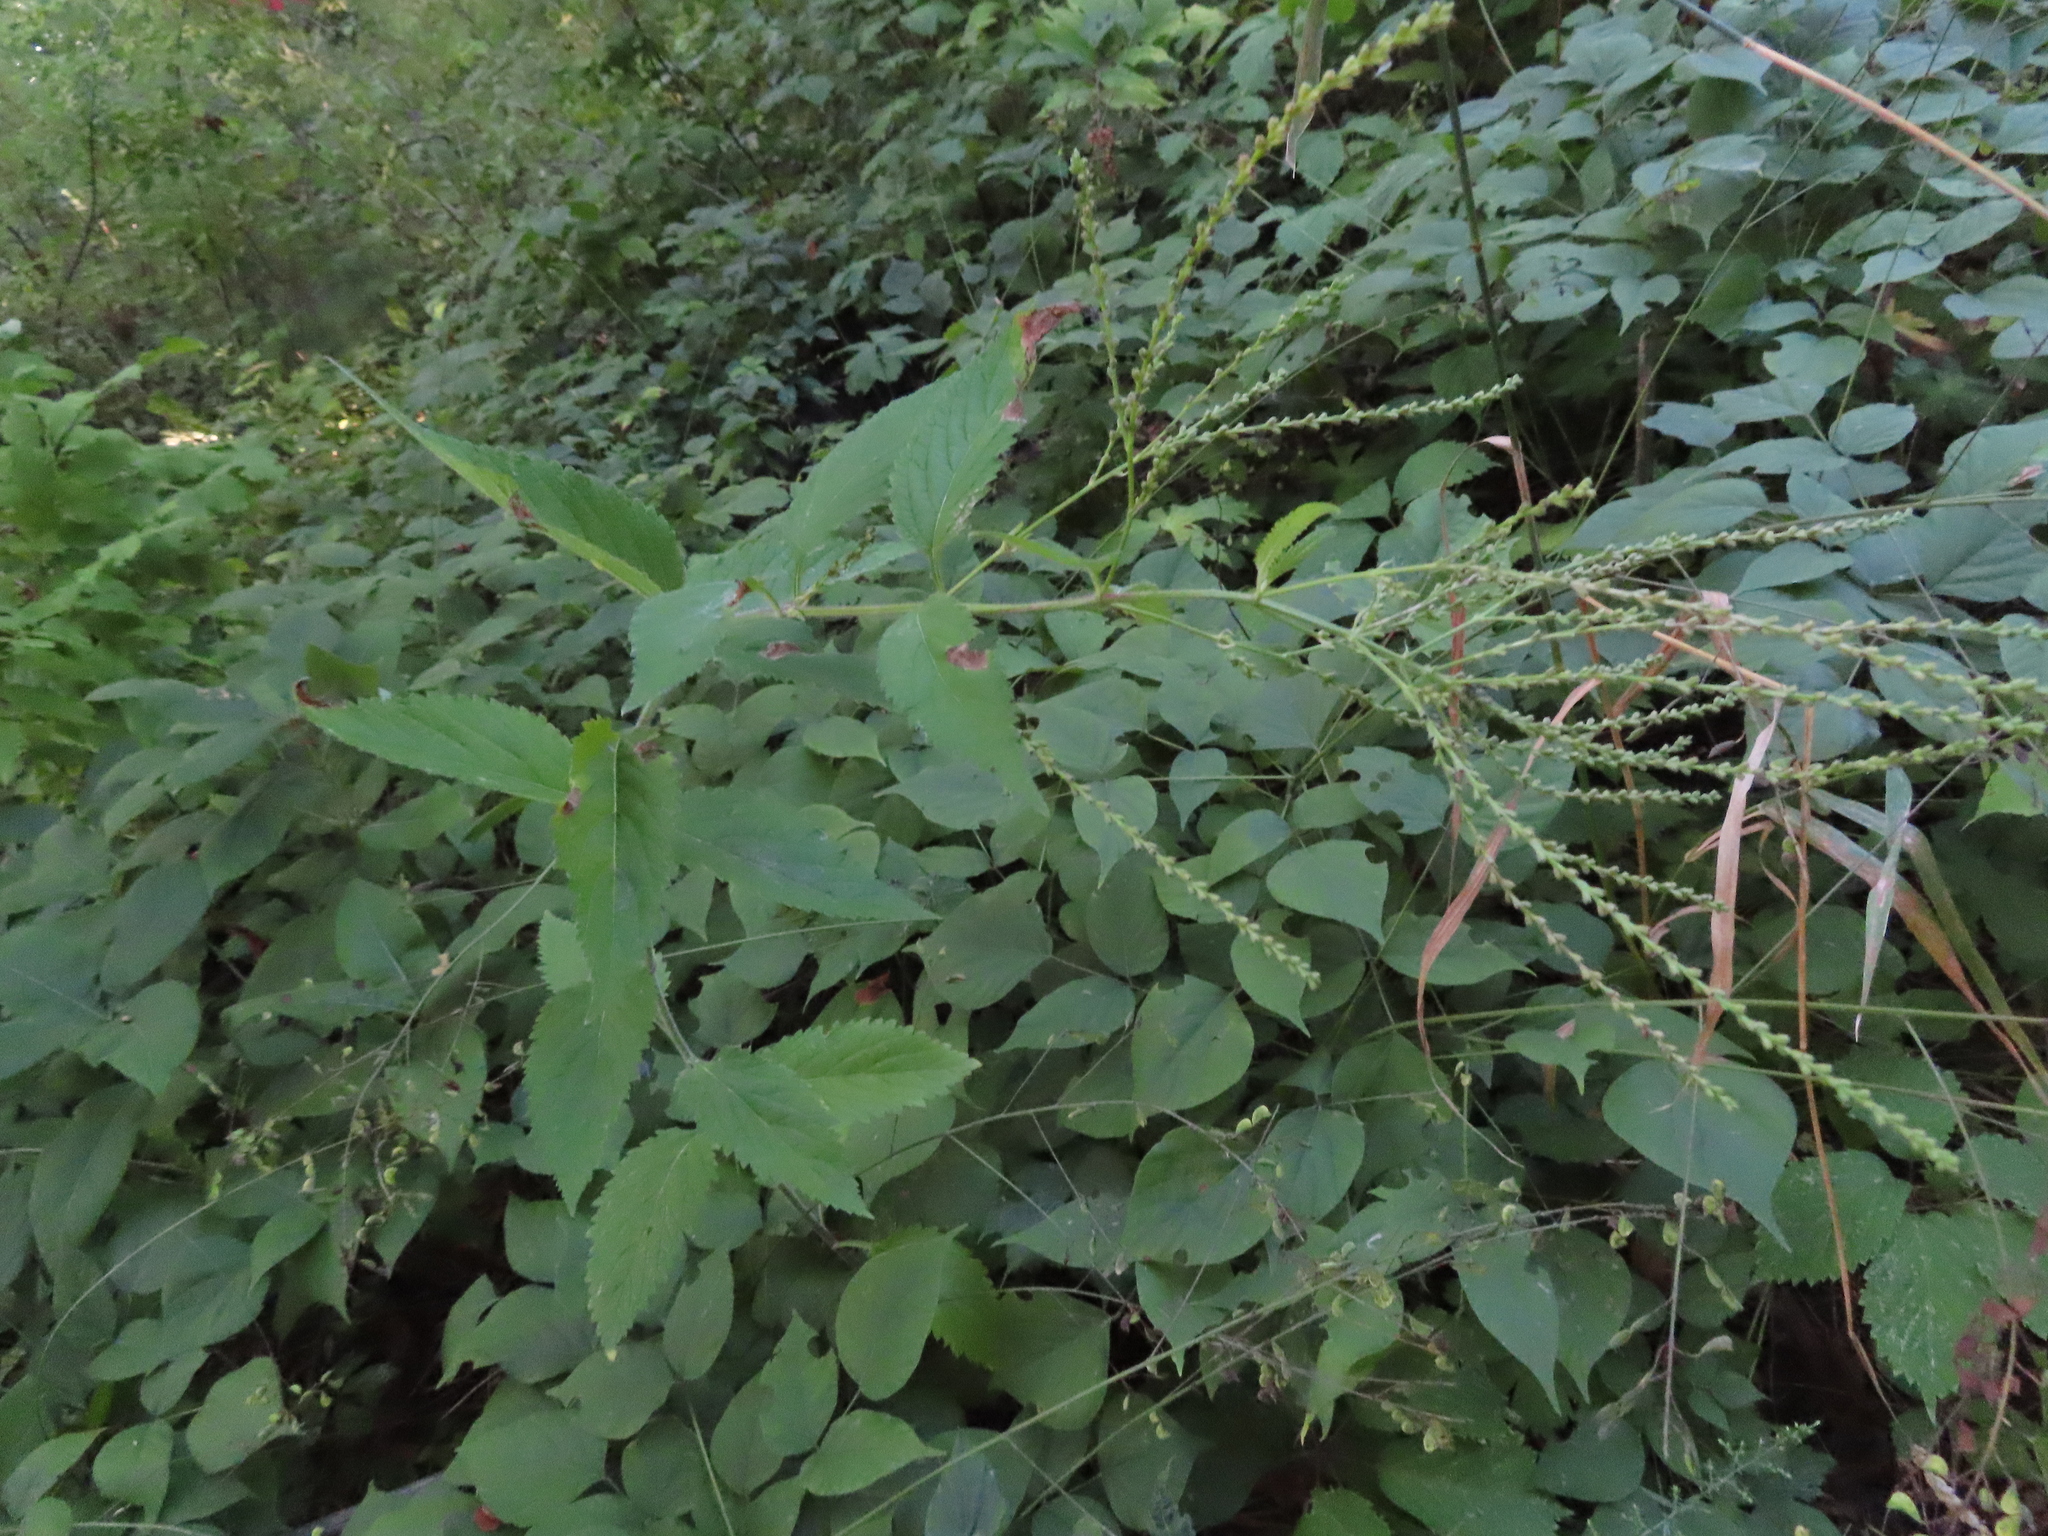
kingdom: Plantae
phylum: Tracheophyta
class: Magnoliopsida
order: Lamiales
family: Verbenaceae
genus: Verbena
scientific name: Verbena urticifolia
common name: Nettle-leaved vervain
